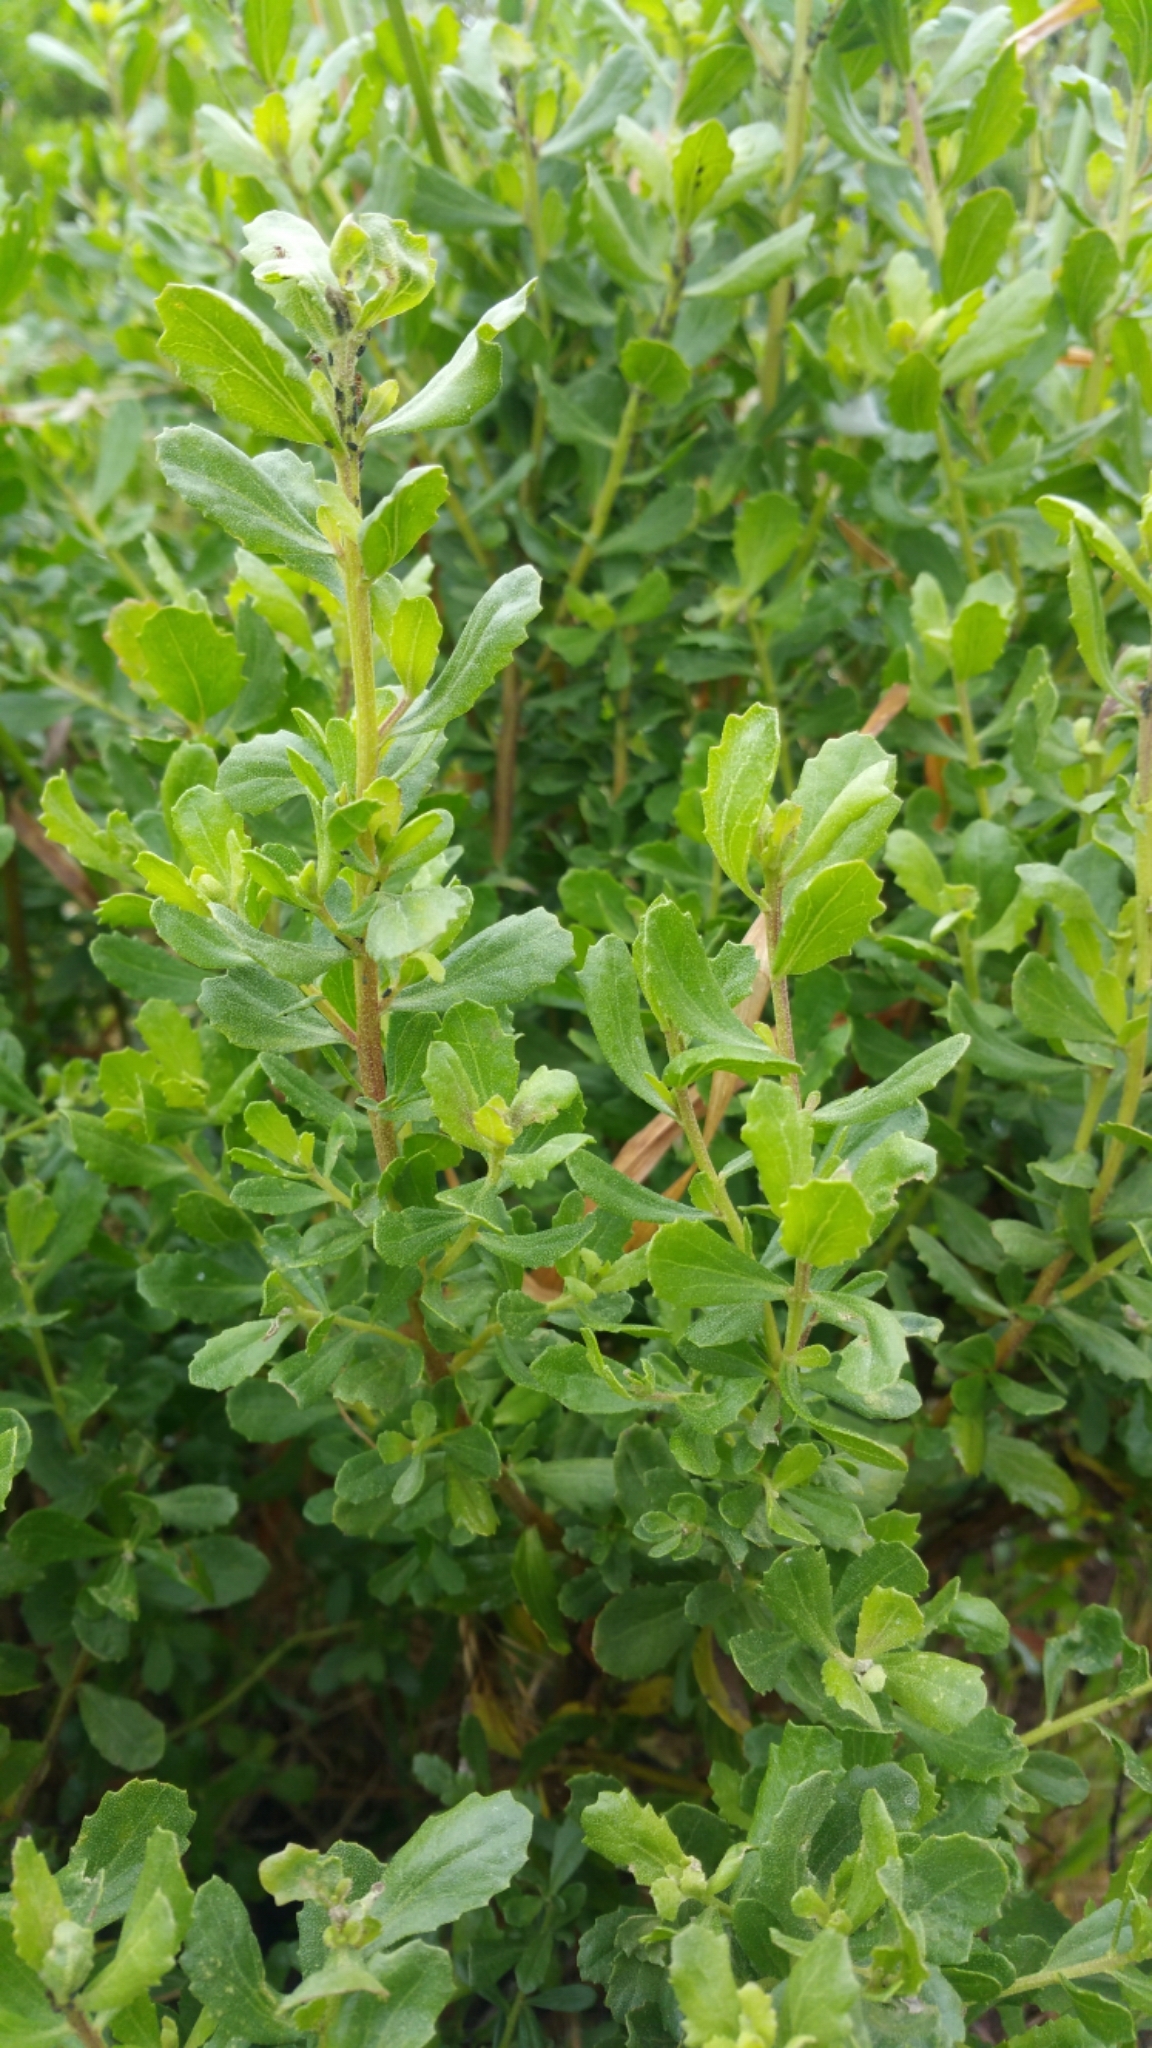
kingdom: Plantae
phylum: Tracheophyta
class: Magnoliopsida
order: Asterales
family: Asteraceae
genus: Baccharis
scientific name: Baccharis pilularis
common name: Coyotebrush
